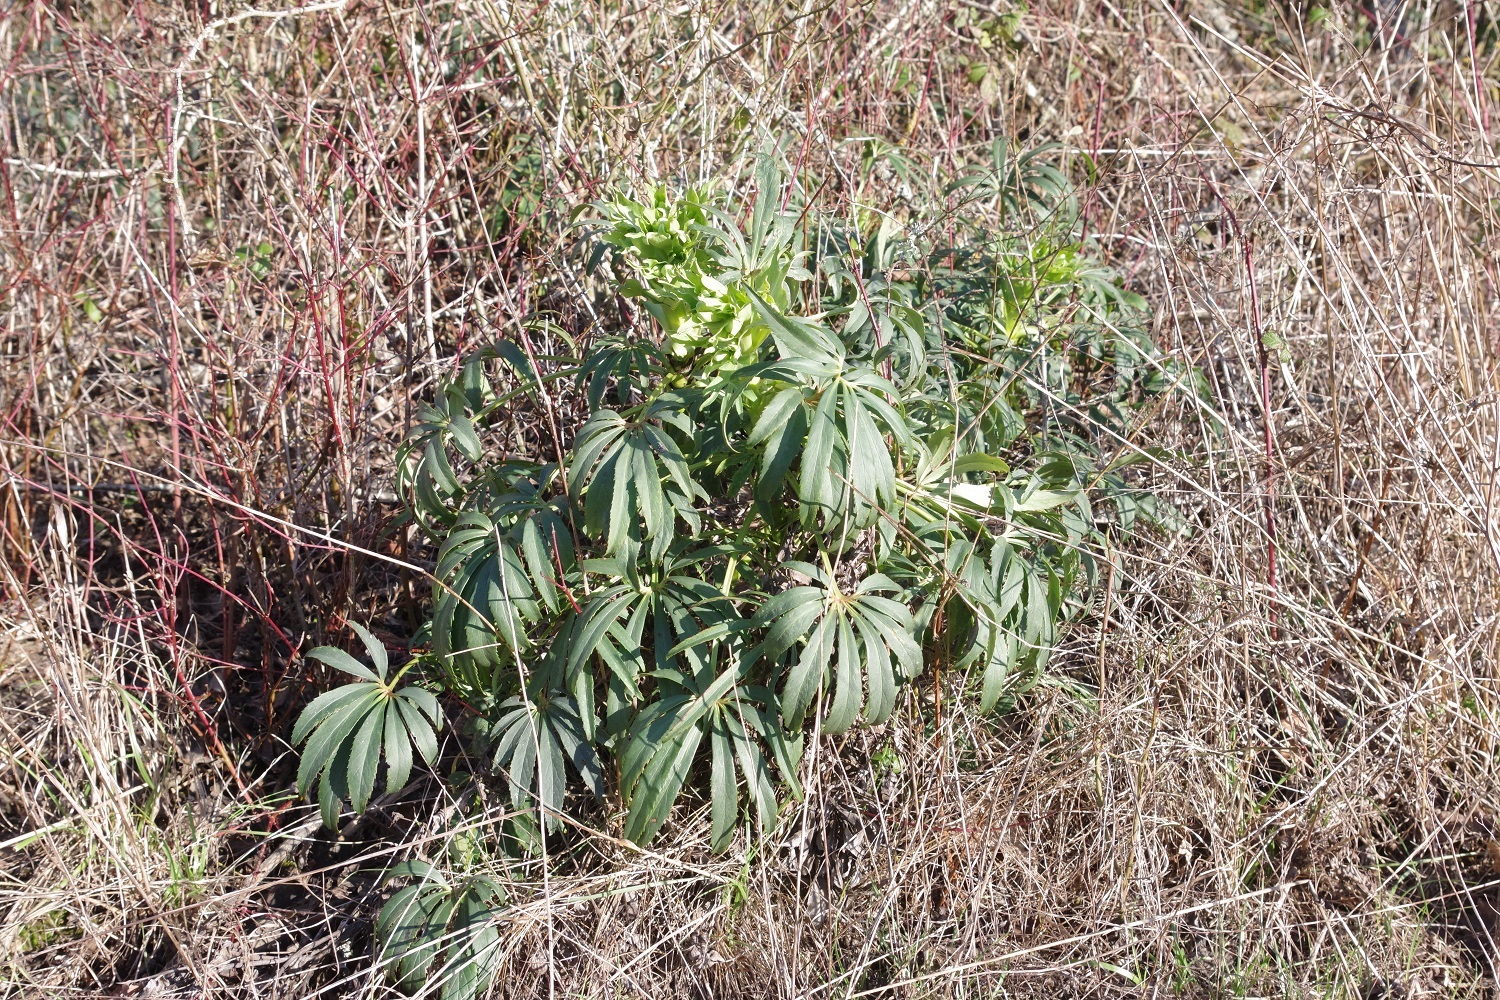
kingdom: Plantae
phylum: Tracheophyta
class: Magnoliopsida
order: Ranunculales
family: Ranunculaceae
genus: Helleborus
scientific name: Helleborus foetidus
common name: Stinking hellebore
